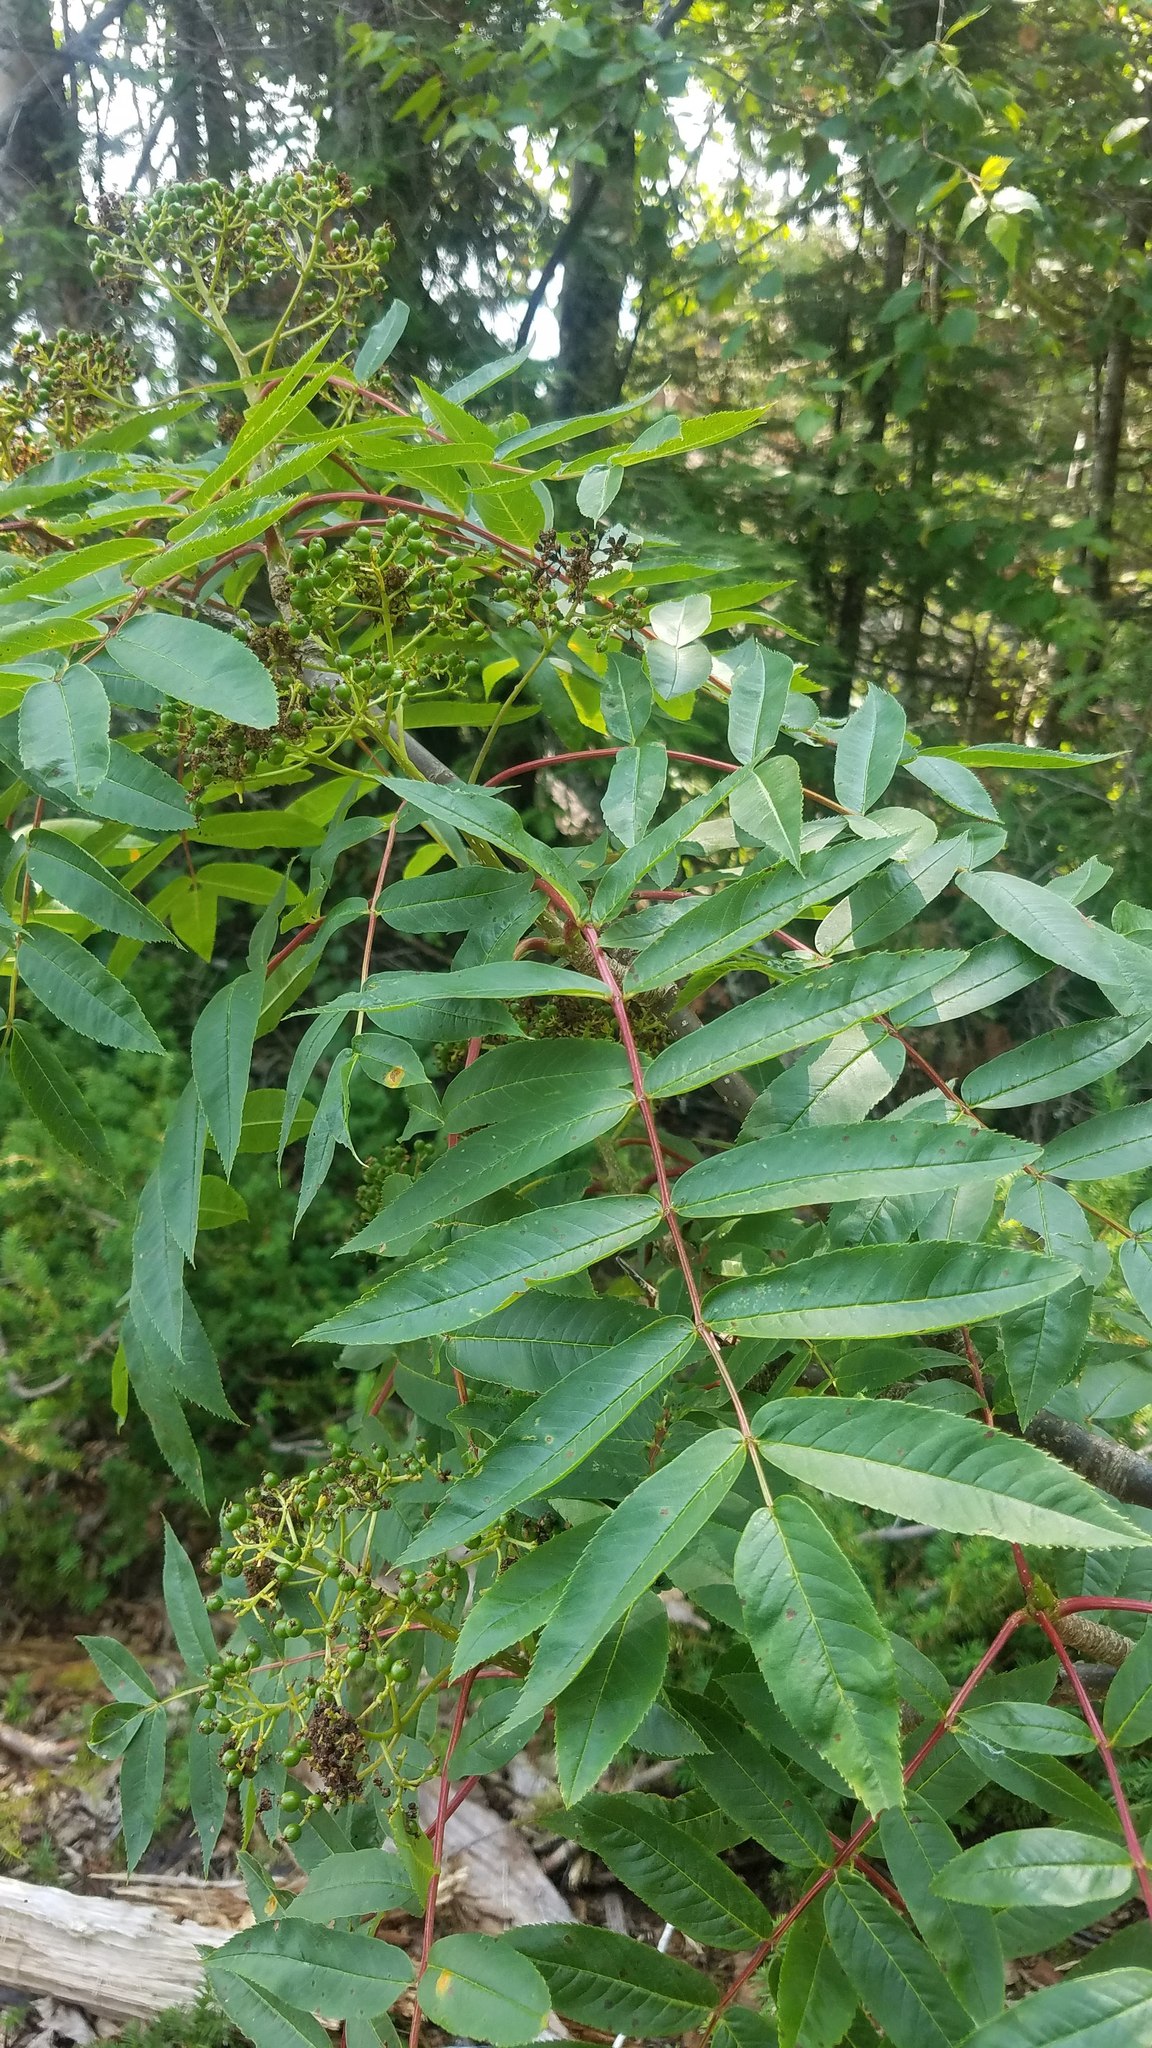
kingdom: Plantae
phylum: Tracheophyta
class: Magnoliopsida
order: Rosales
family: Rosaceae
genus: Sorbus
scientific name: Sorbus americana
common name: American mountain-ash
